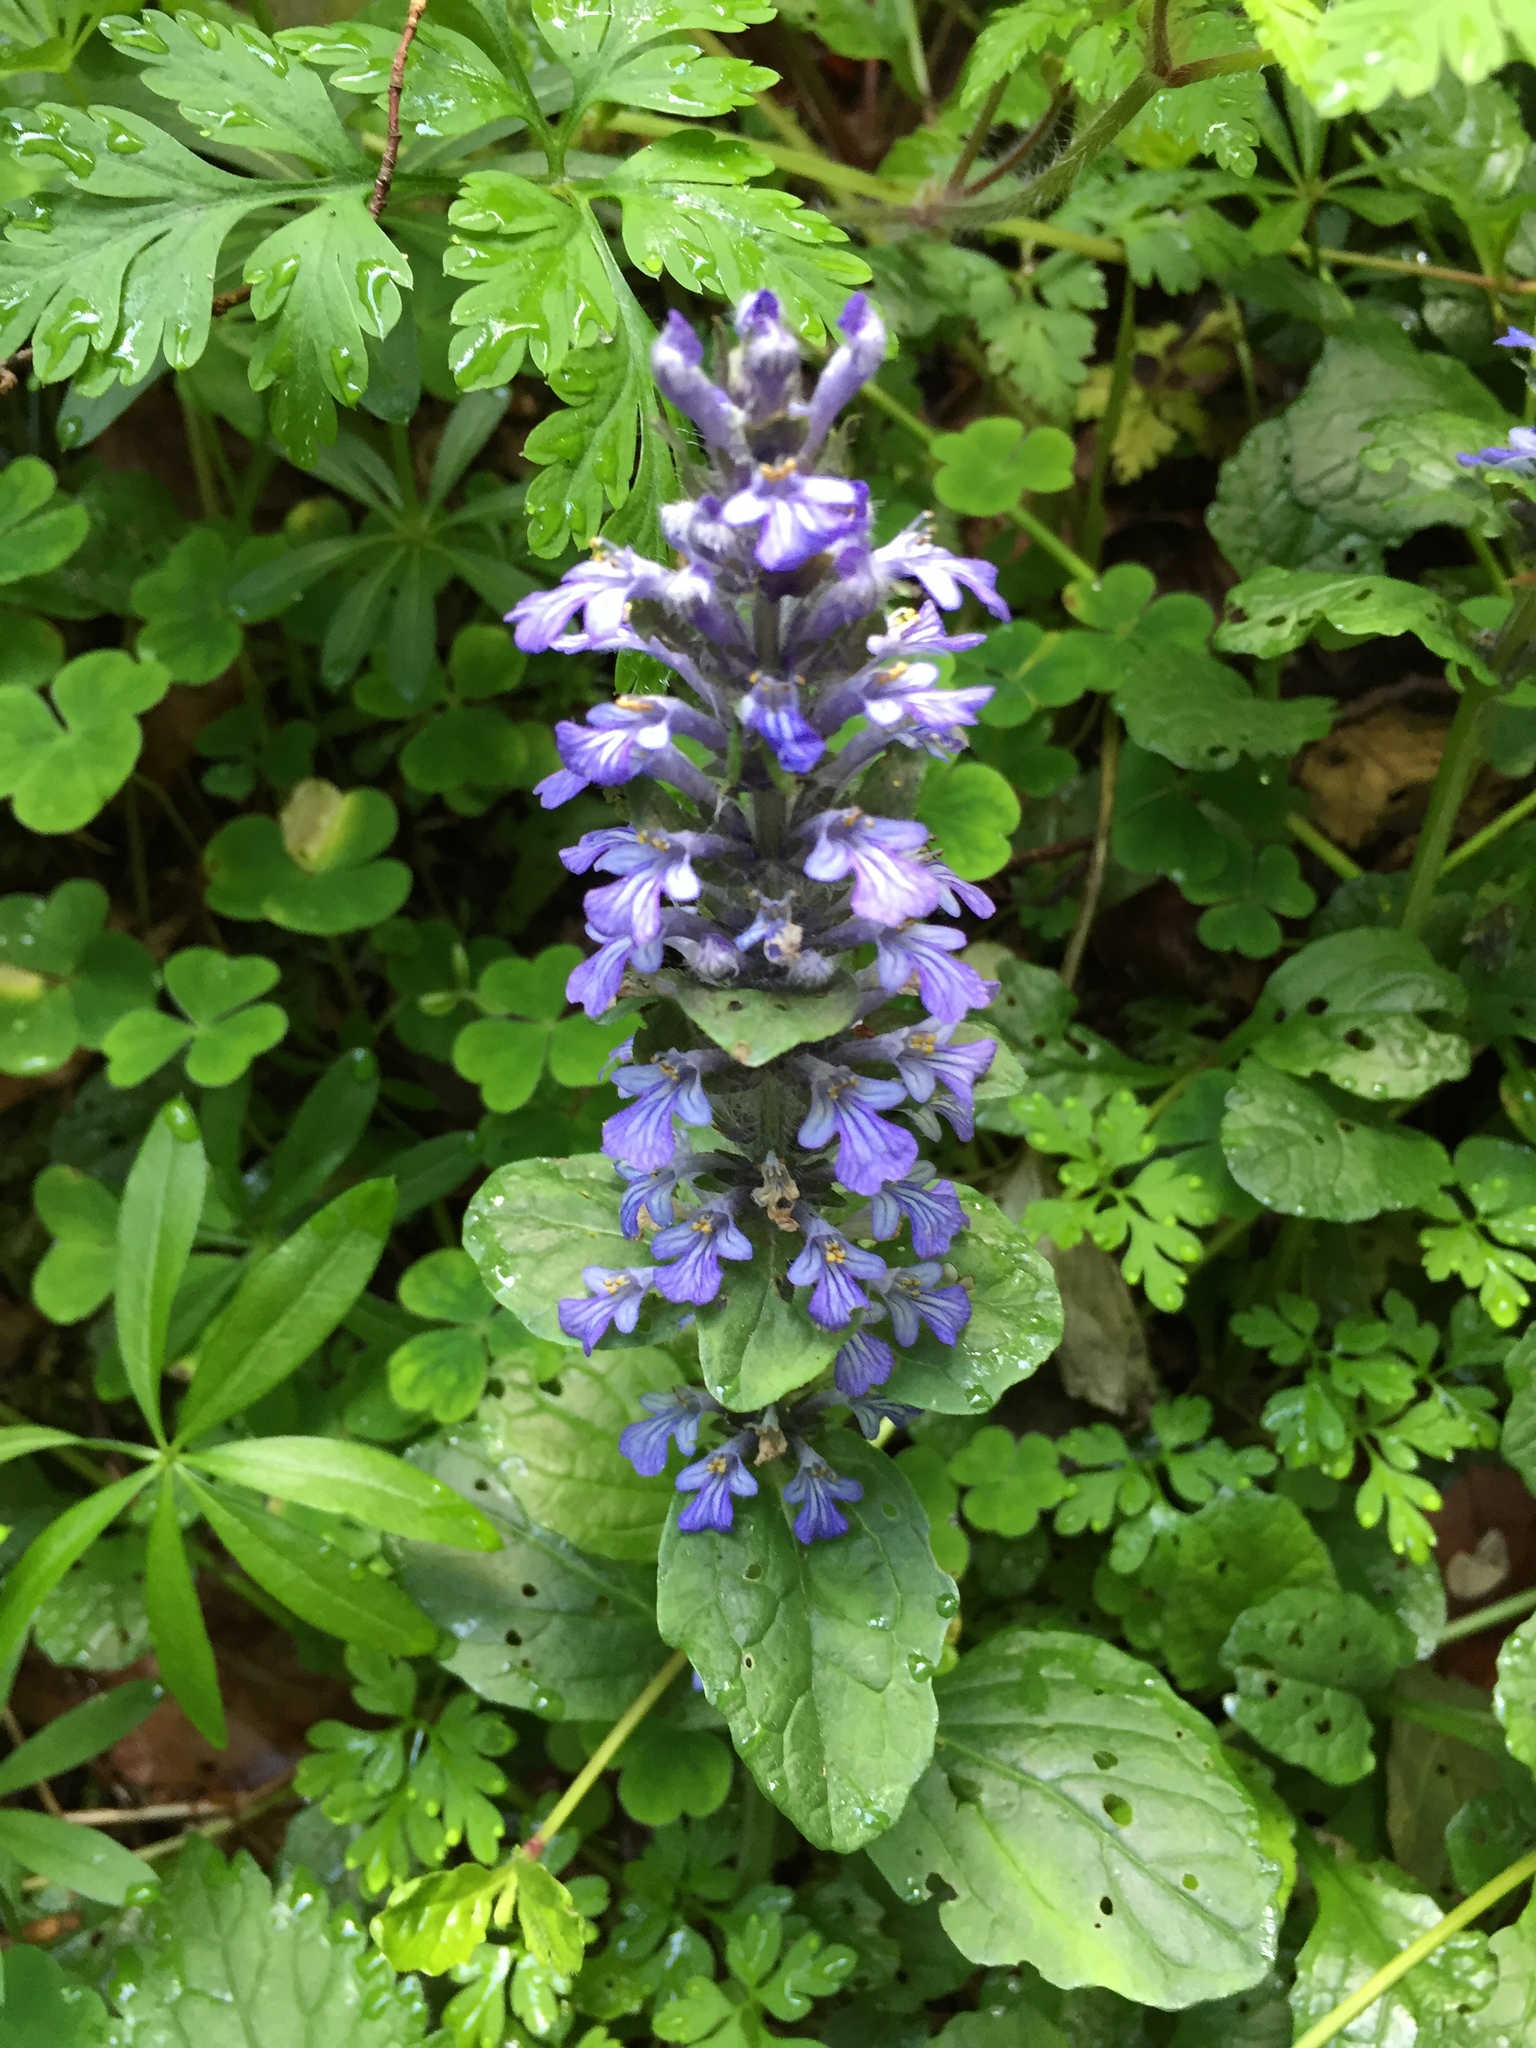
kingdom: Plantae
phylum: Tracheophyta
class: Magnoliopsida
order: Lamiales
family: Lamiaceae
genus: Ajuga
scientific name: Ajuga reptans
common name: Bugle
